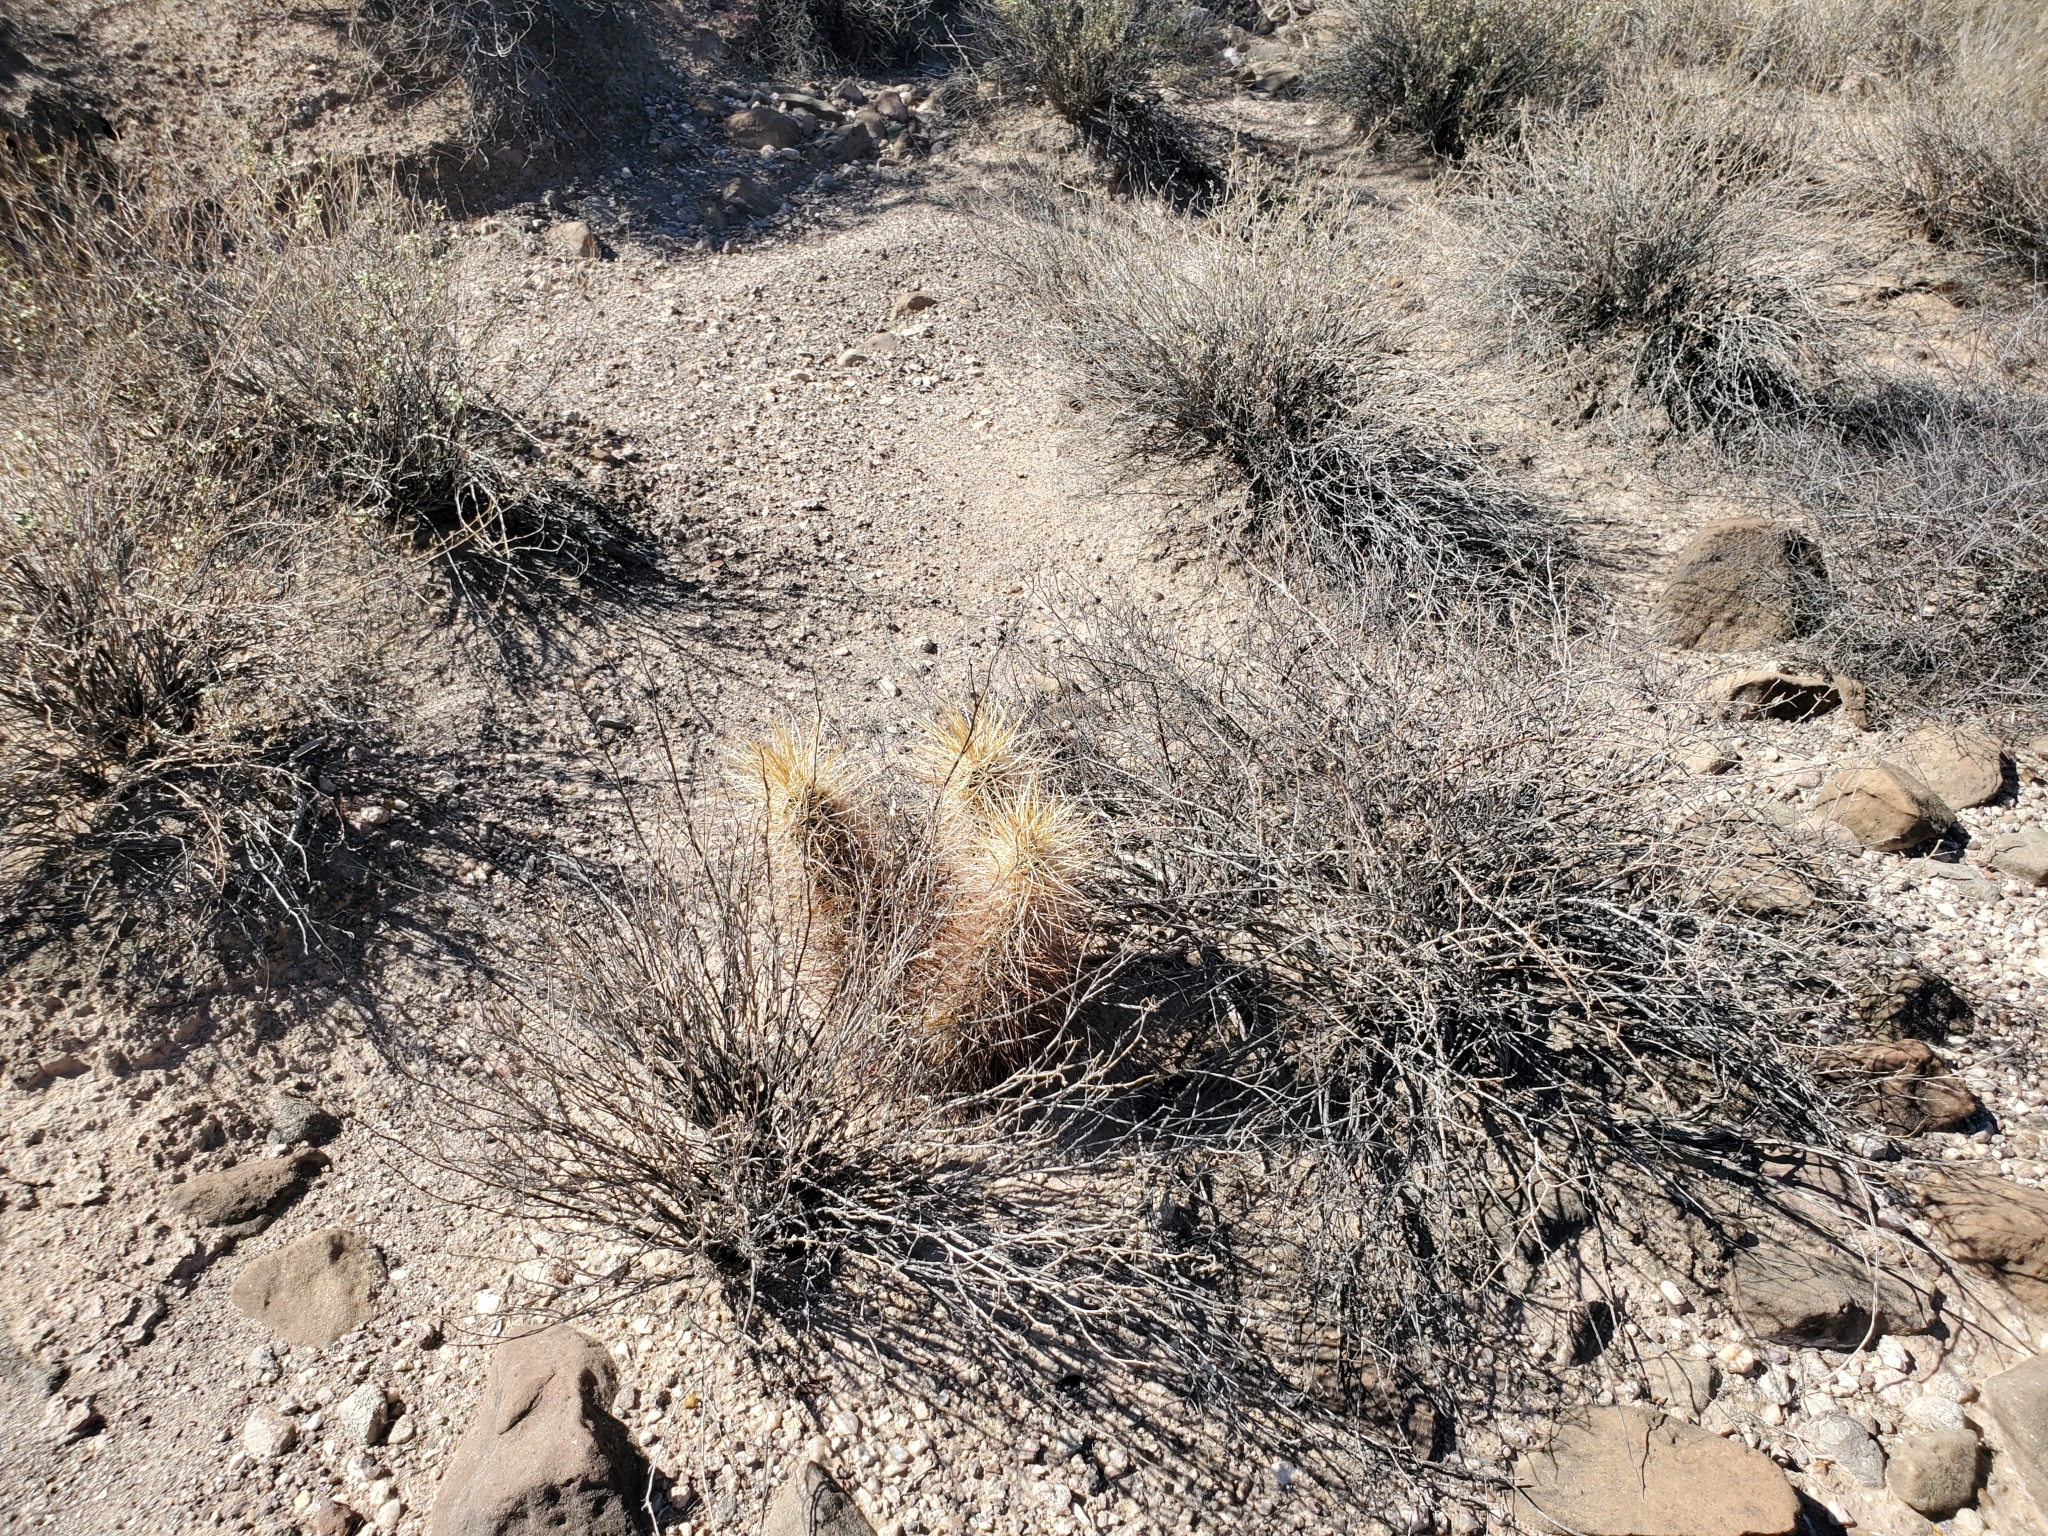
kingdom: Plantae
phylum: Tracheophyta
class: Magnoliopsida
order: Caryophyllales
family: Cactaceae
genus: Echinocereus
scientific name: Echinocereus engelmannii
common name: Engelmann's hedgehog cactus
